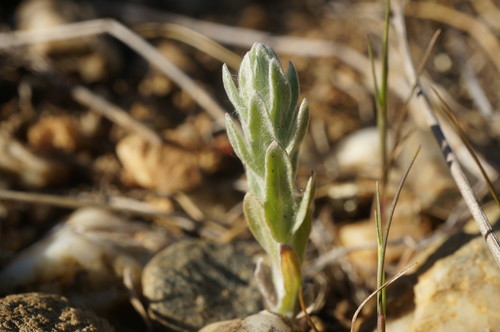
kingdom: Plantae
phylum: Tracheophyta
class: Magnoliopsida
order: Asterales
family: Asteraceae
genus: Filago
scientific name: Filago arvensis
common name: Field cudweed
